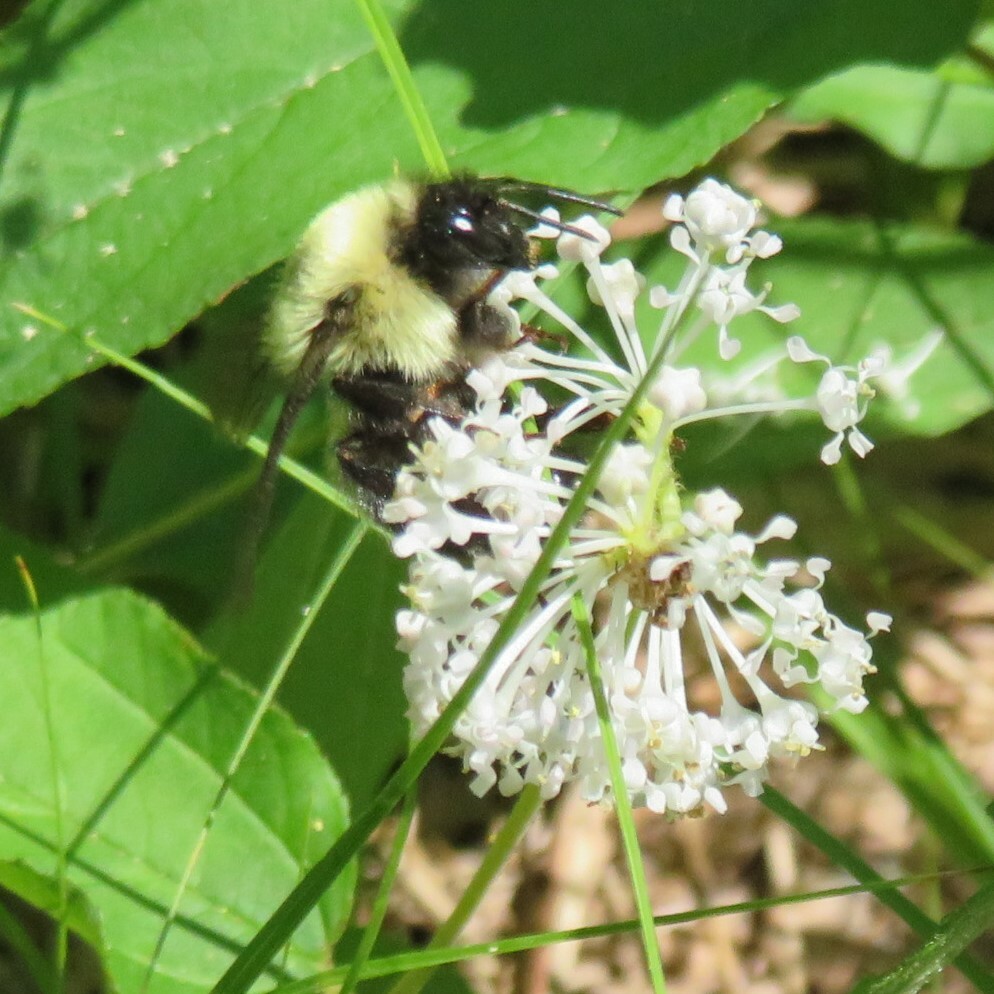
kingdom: Animalia
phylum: Arthropoda
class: Insecta
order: Hymenoptera
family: Apidae
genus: Bombus
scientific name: Bombus bimaculatus
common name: Two-spotted bumble bee
